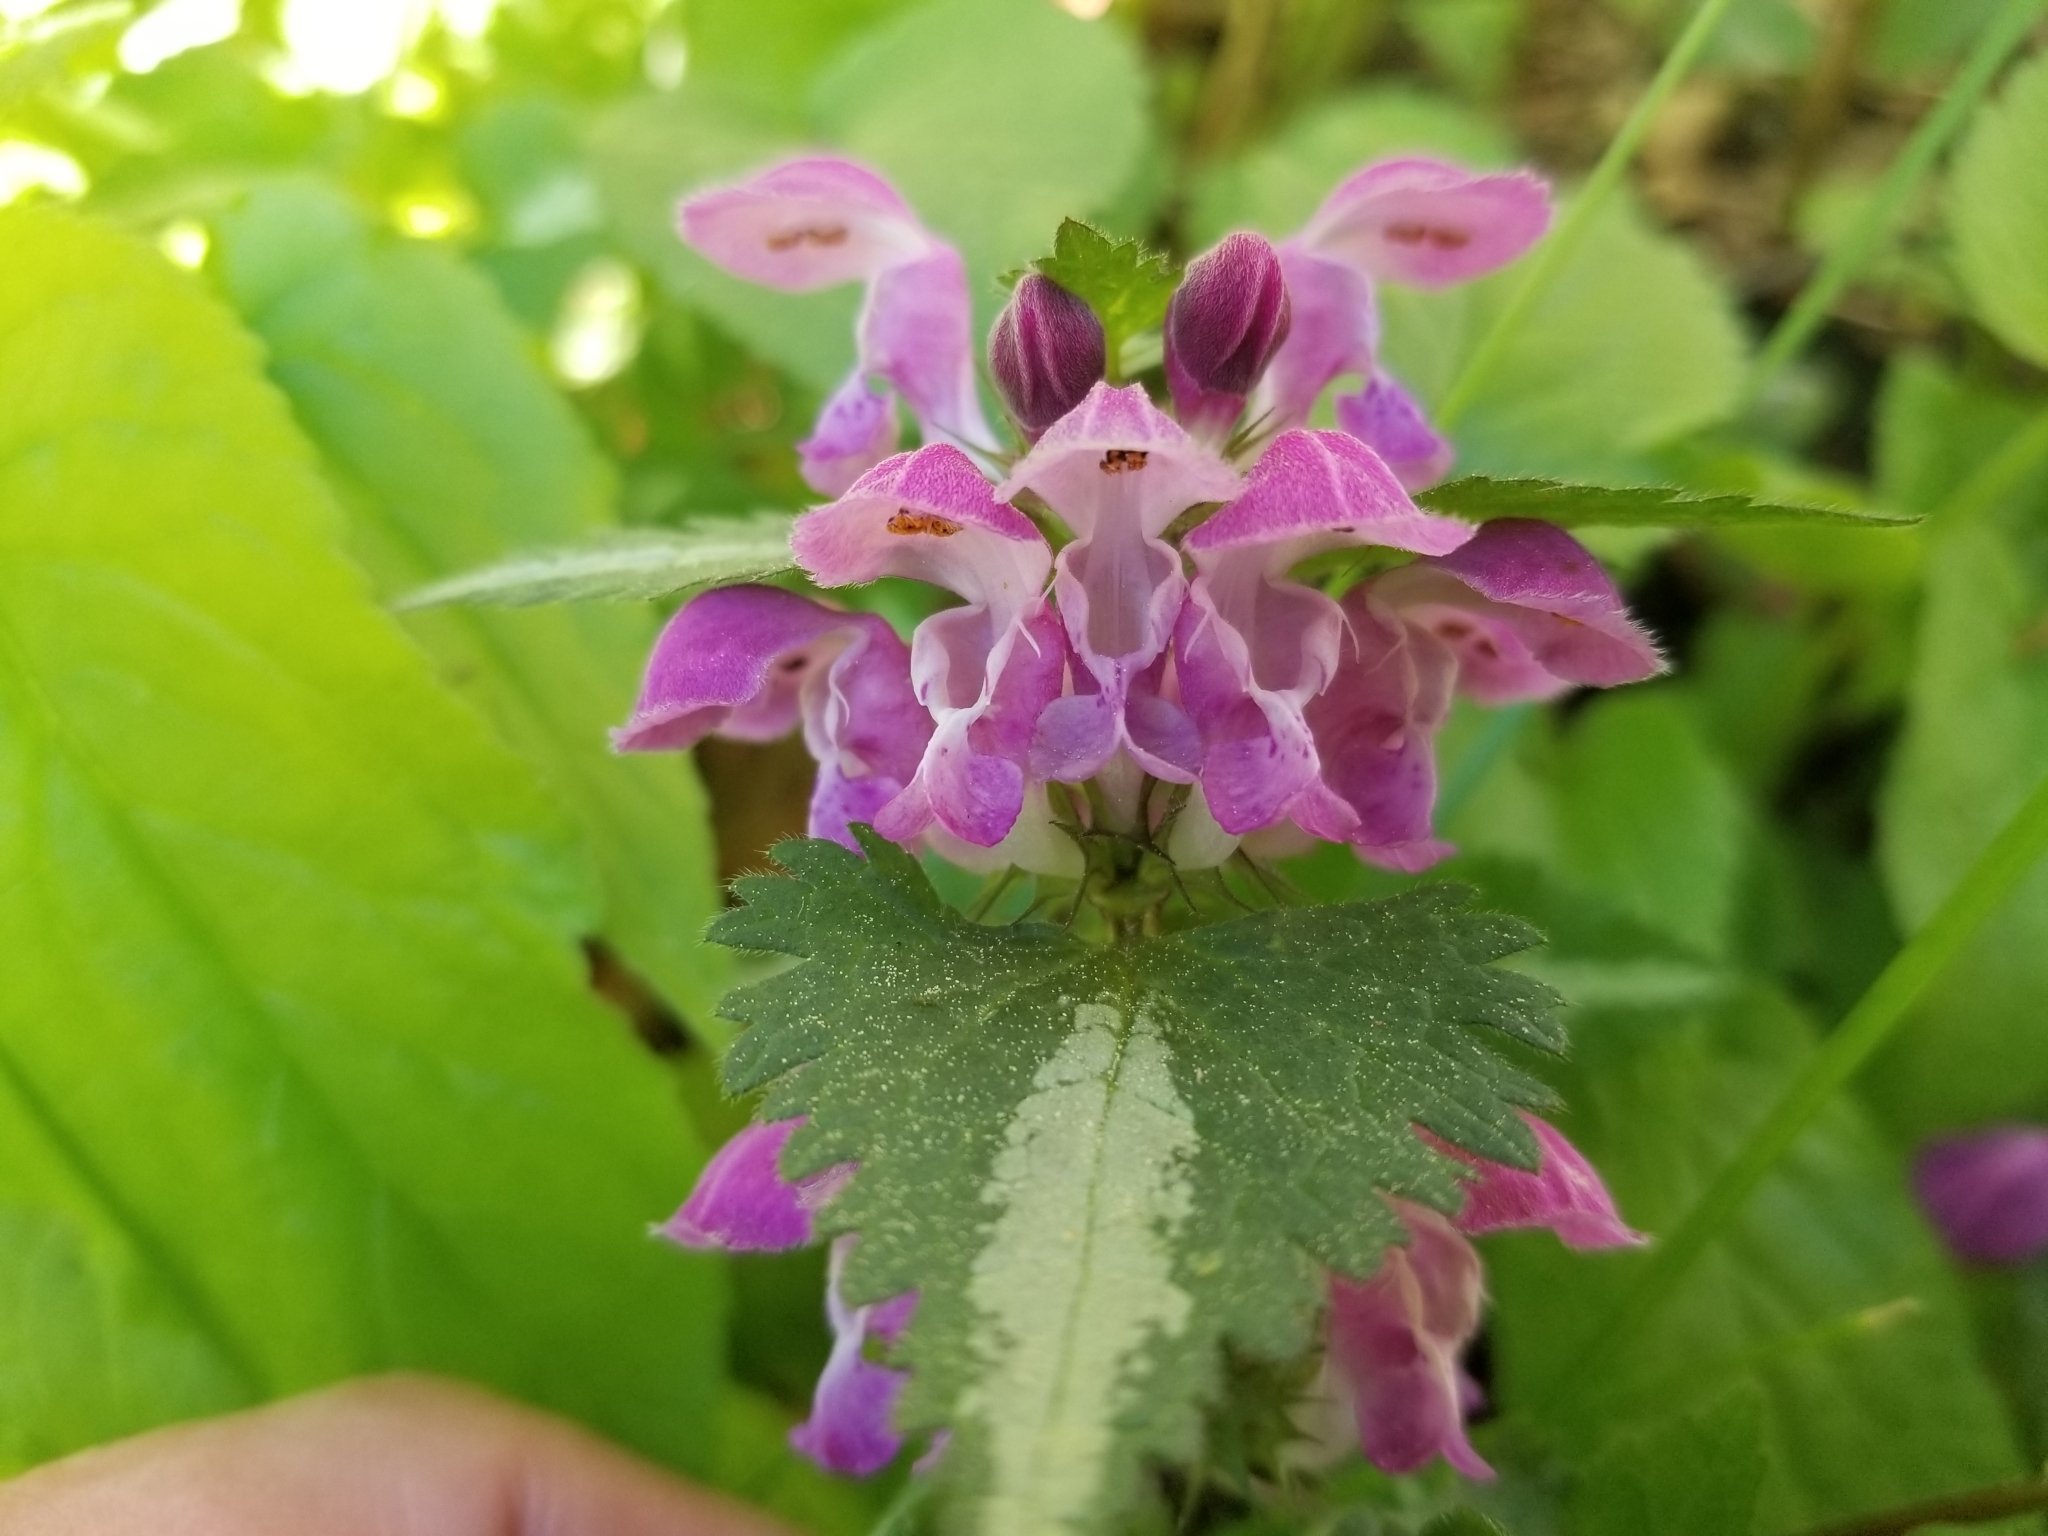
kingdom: Plantae
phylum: Tracheophyta
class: Magnoliopsida
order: Lamiales
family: Lamiaceae
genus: Lamium
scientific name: Lamium maculatum
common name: Spotted dead-nettle
